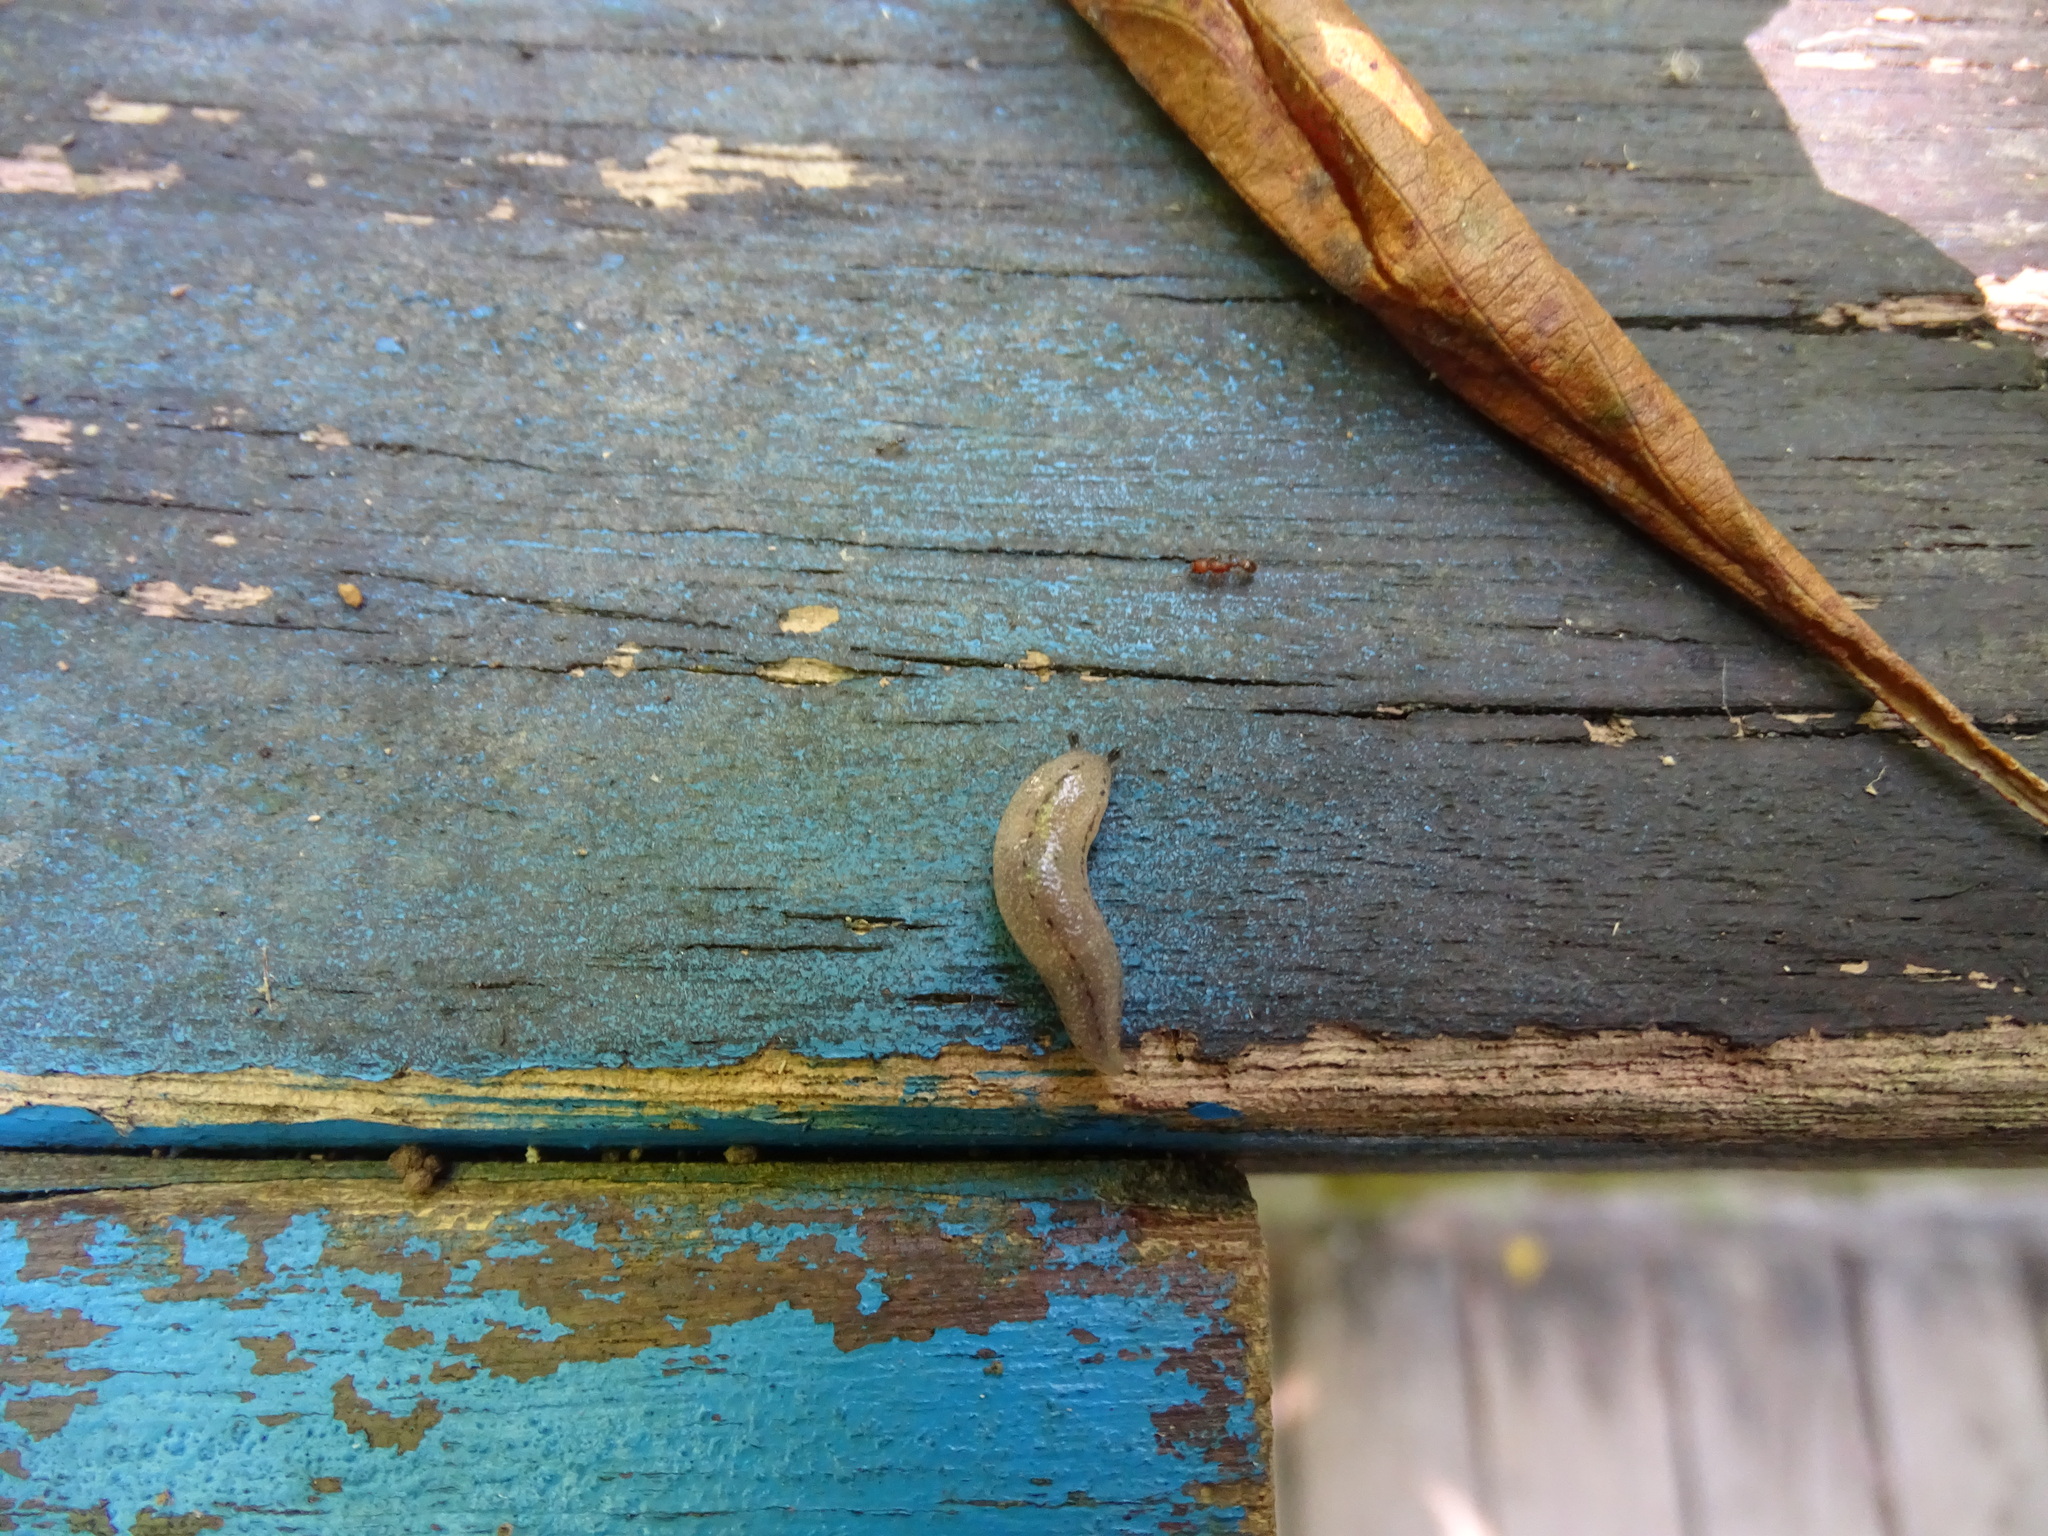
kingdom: Animalia
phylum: Mollusca
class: Gastropoda
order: Stylommatophora
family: Philomycidae
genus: Meghimatium
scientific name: Meghimatium bilineatum
